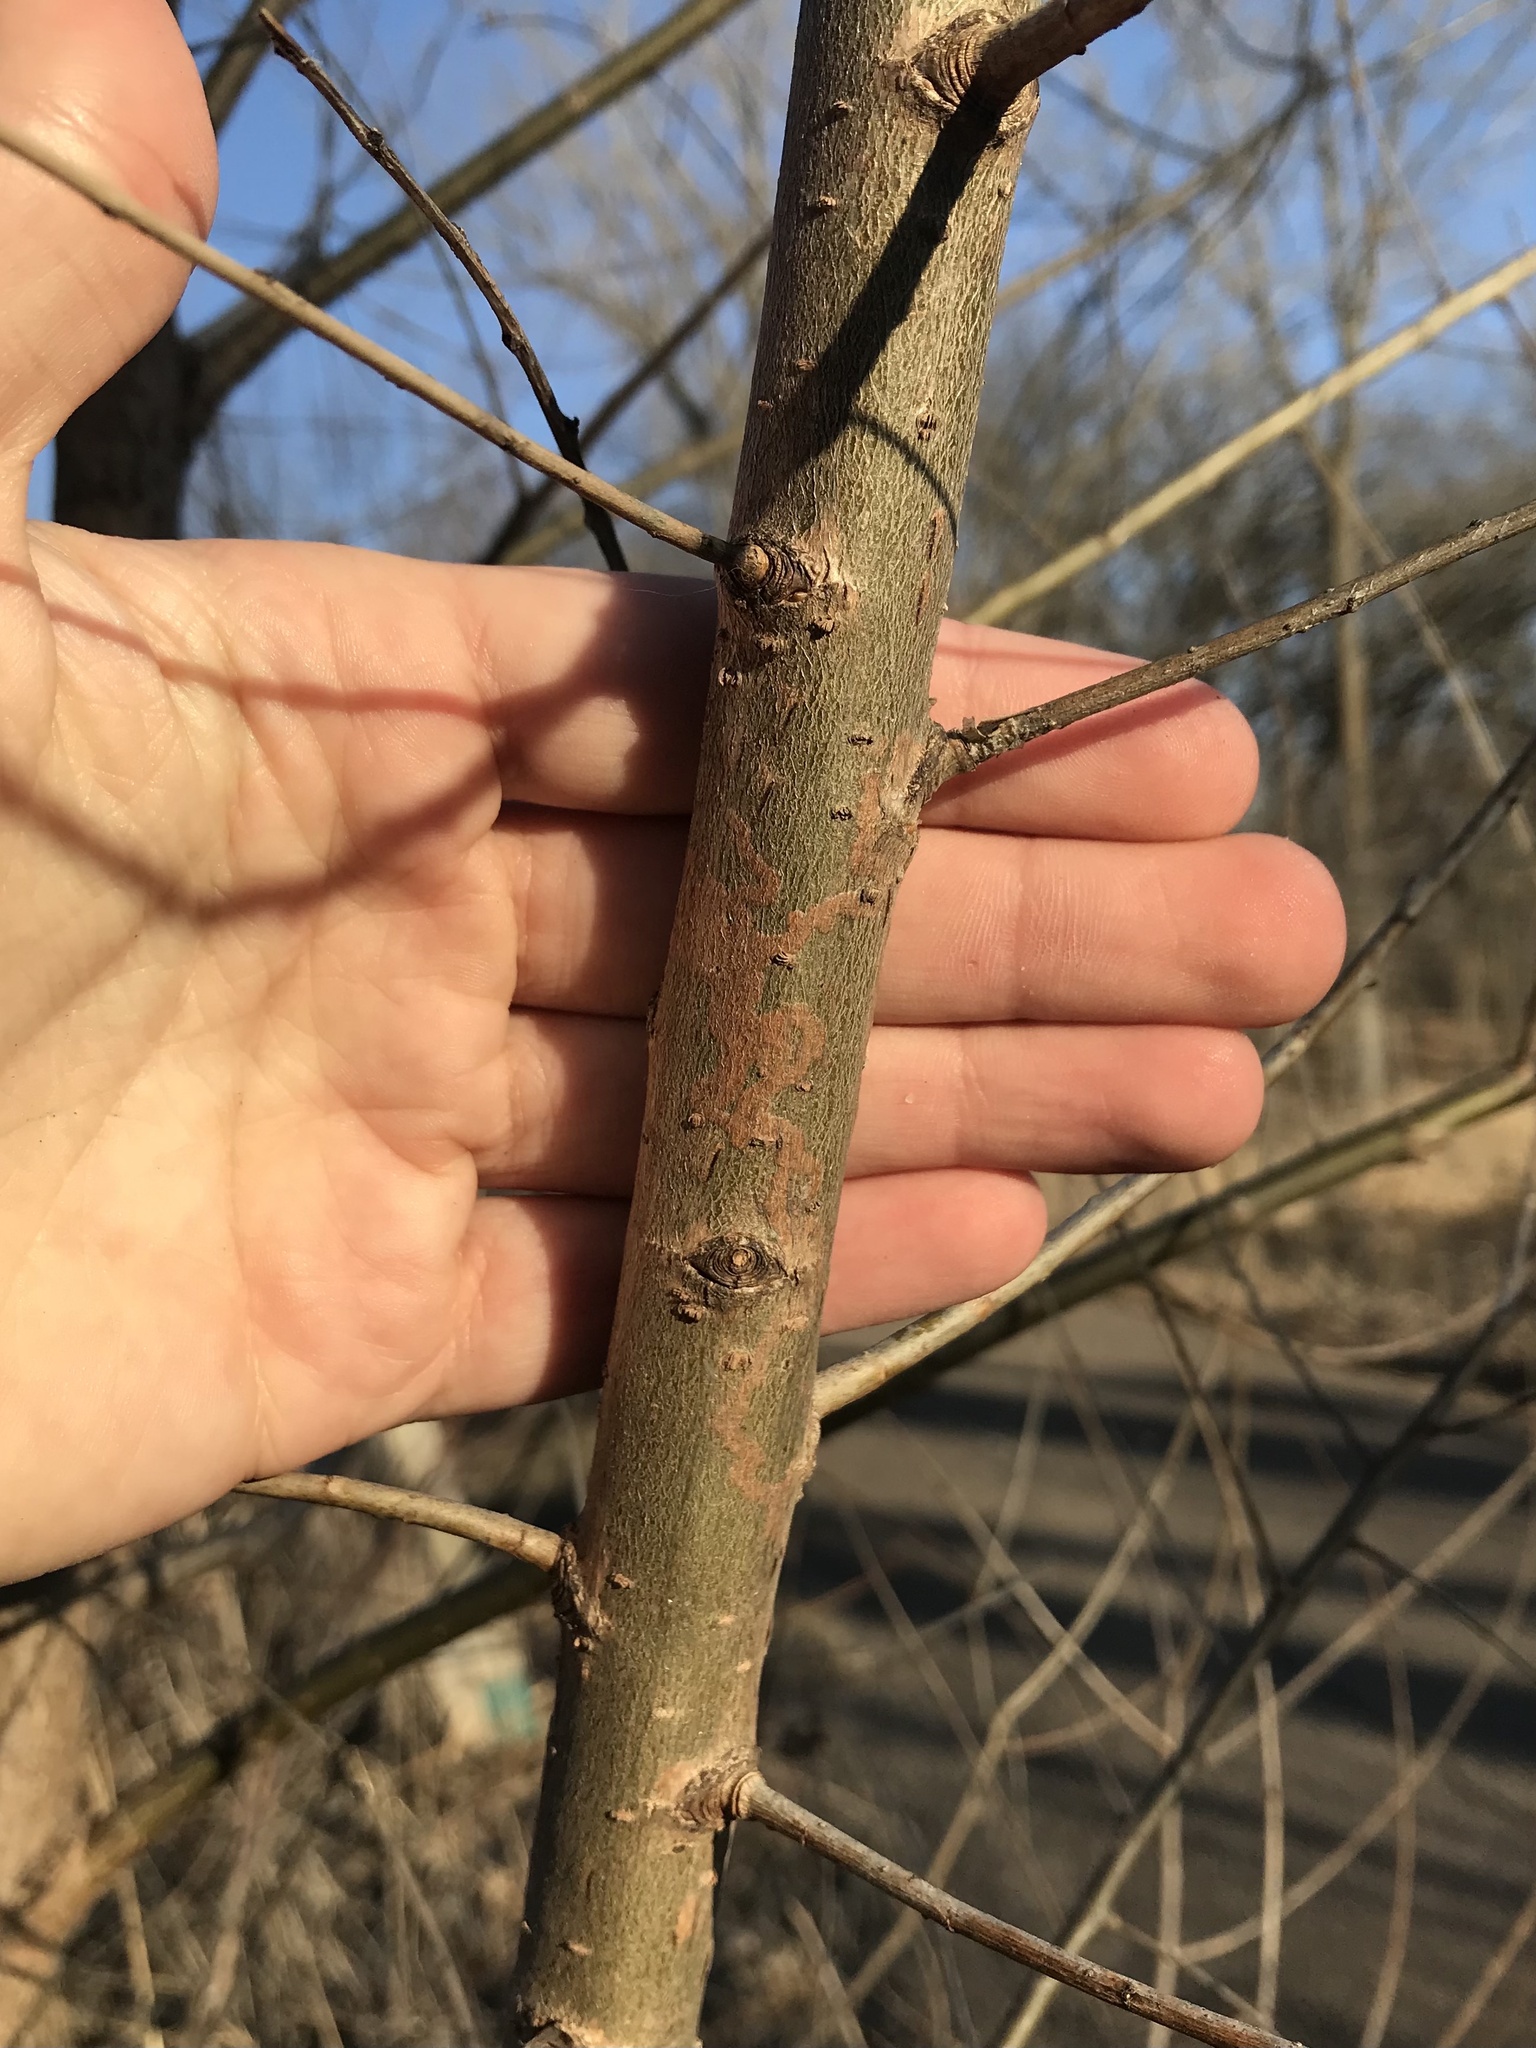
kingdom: Animalia
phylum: Arthropoda
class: Insecta
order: Lepidoptera
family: Gracillariidae
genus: Marmara
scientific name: Marmara salictella
